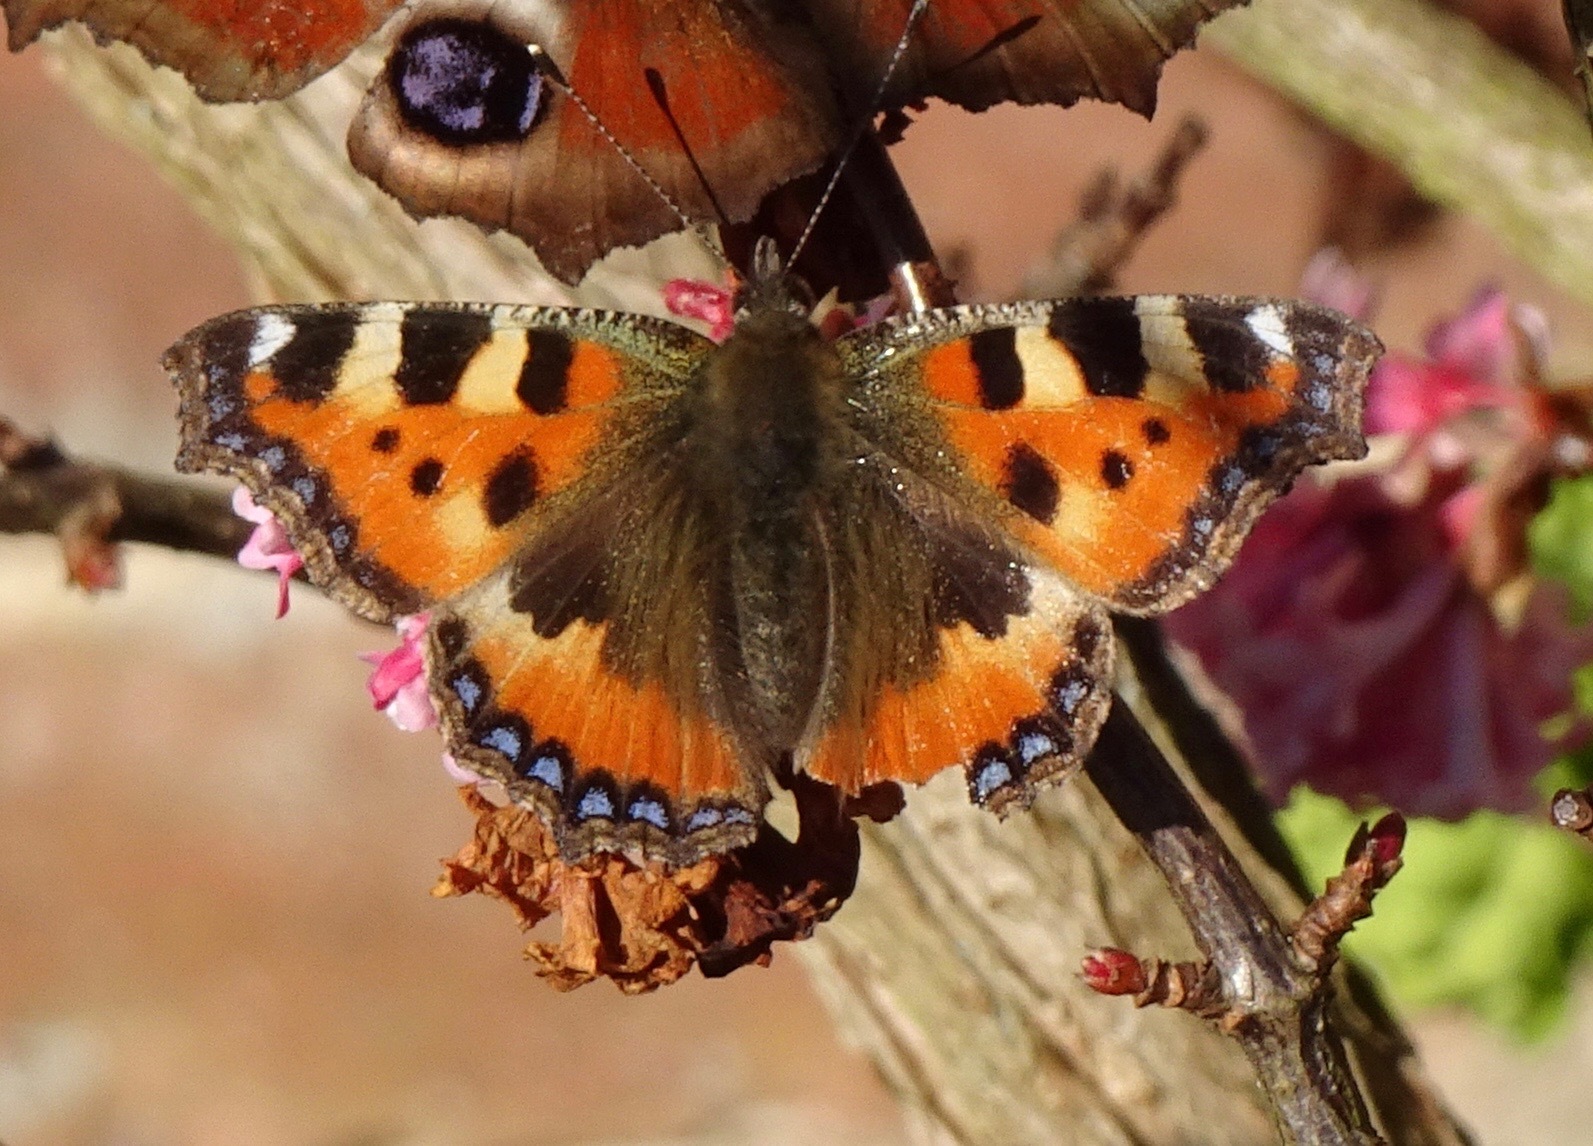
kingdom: Animalia
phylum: Arthropoda
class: Insecta
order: Lepidoptera
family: Nymphalidae
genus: Aglais
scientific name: Aglais urticae
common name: Small tortoiseshell
